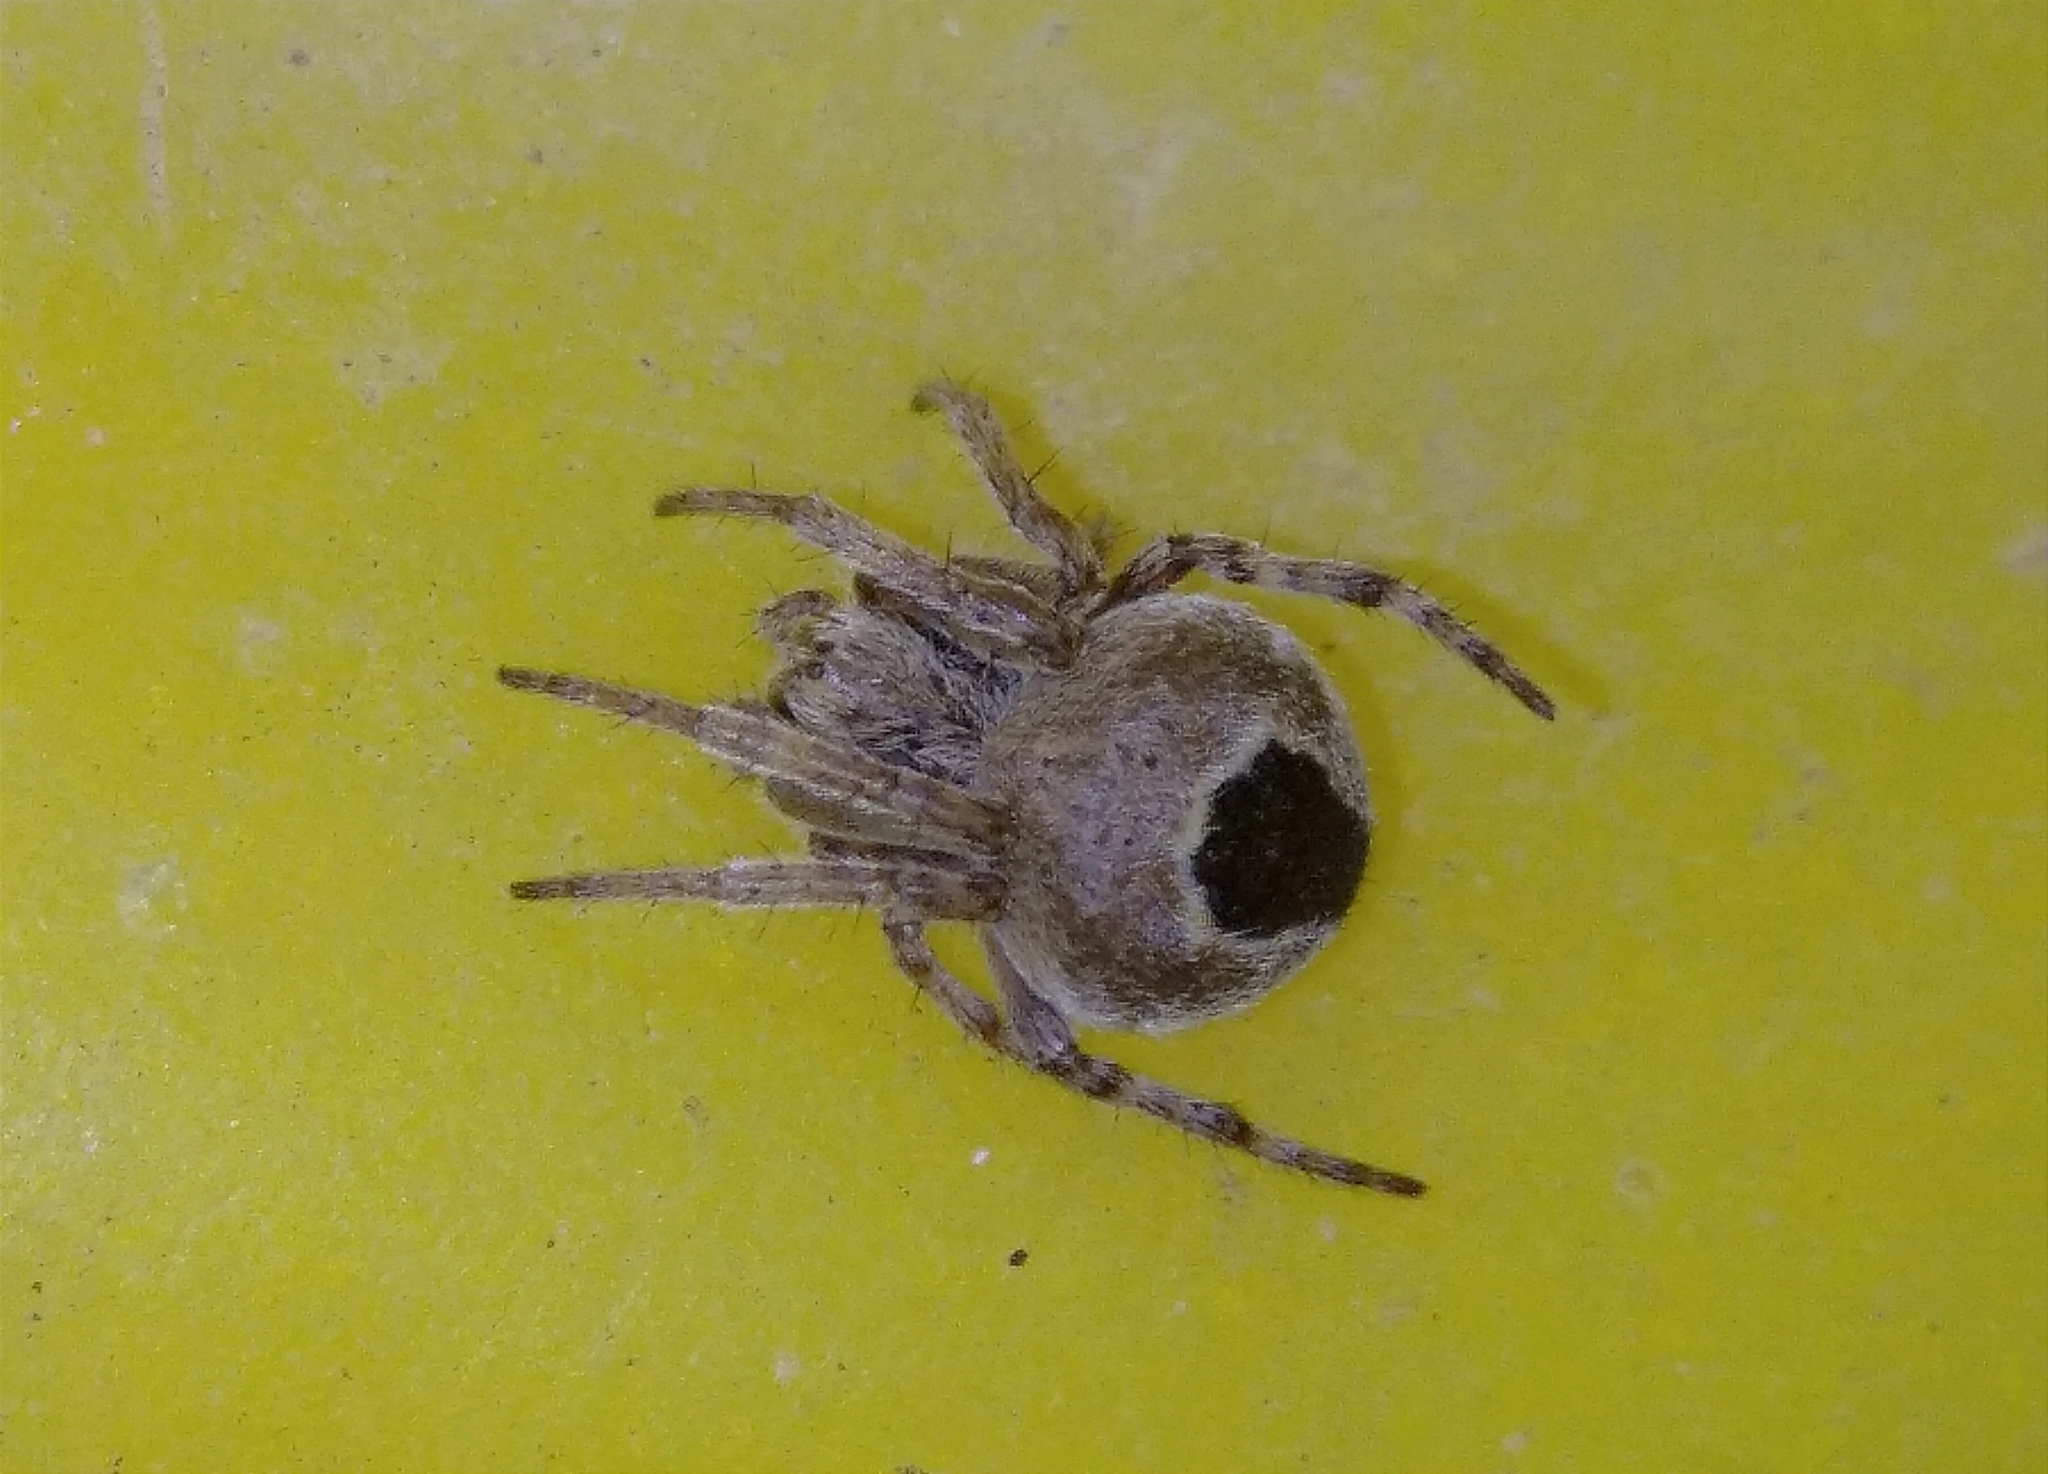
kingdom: Animalia
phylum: Arthropoda
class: Arachnida
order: Araneae
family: Araneidae
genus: Agalenatea
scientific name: Agalenatea redii
